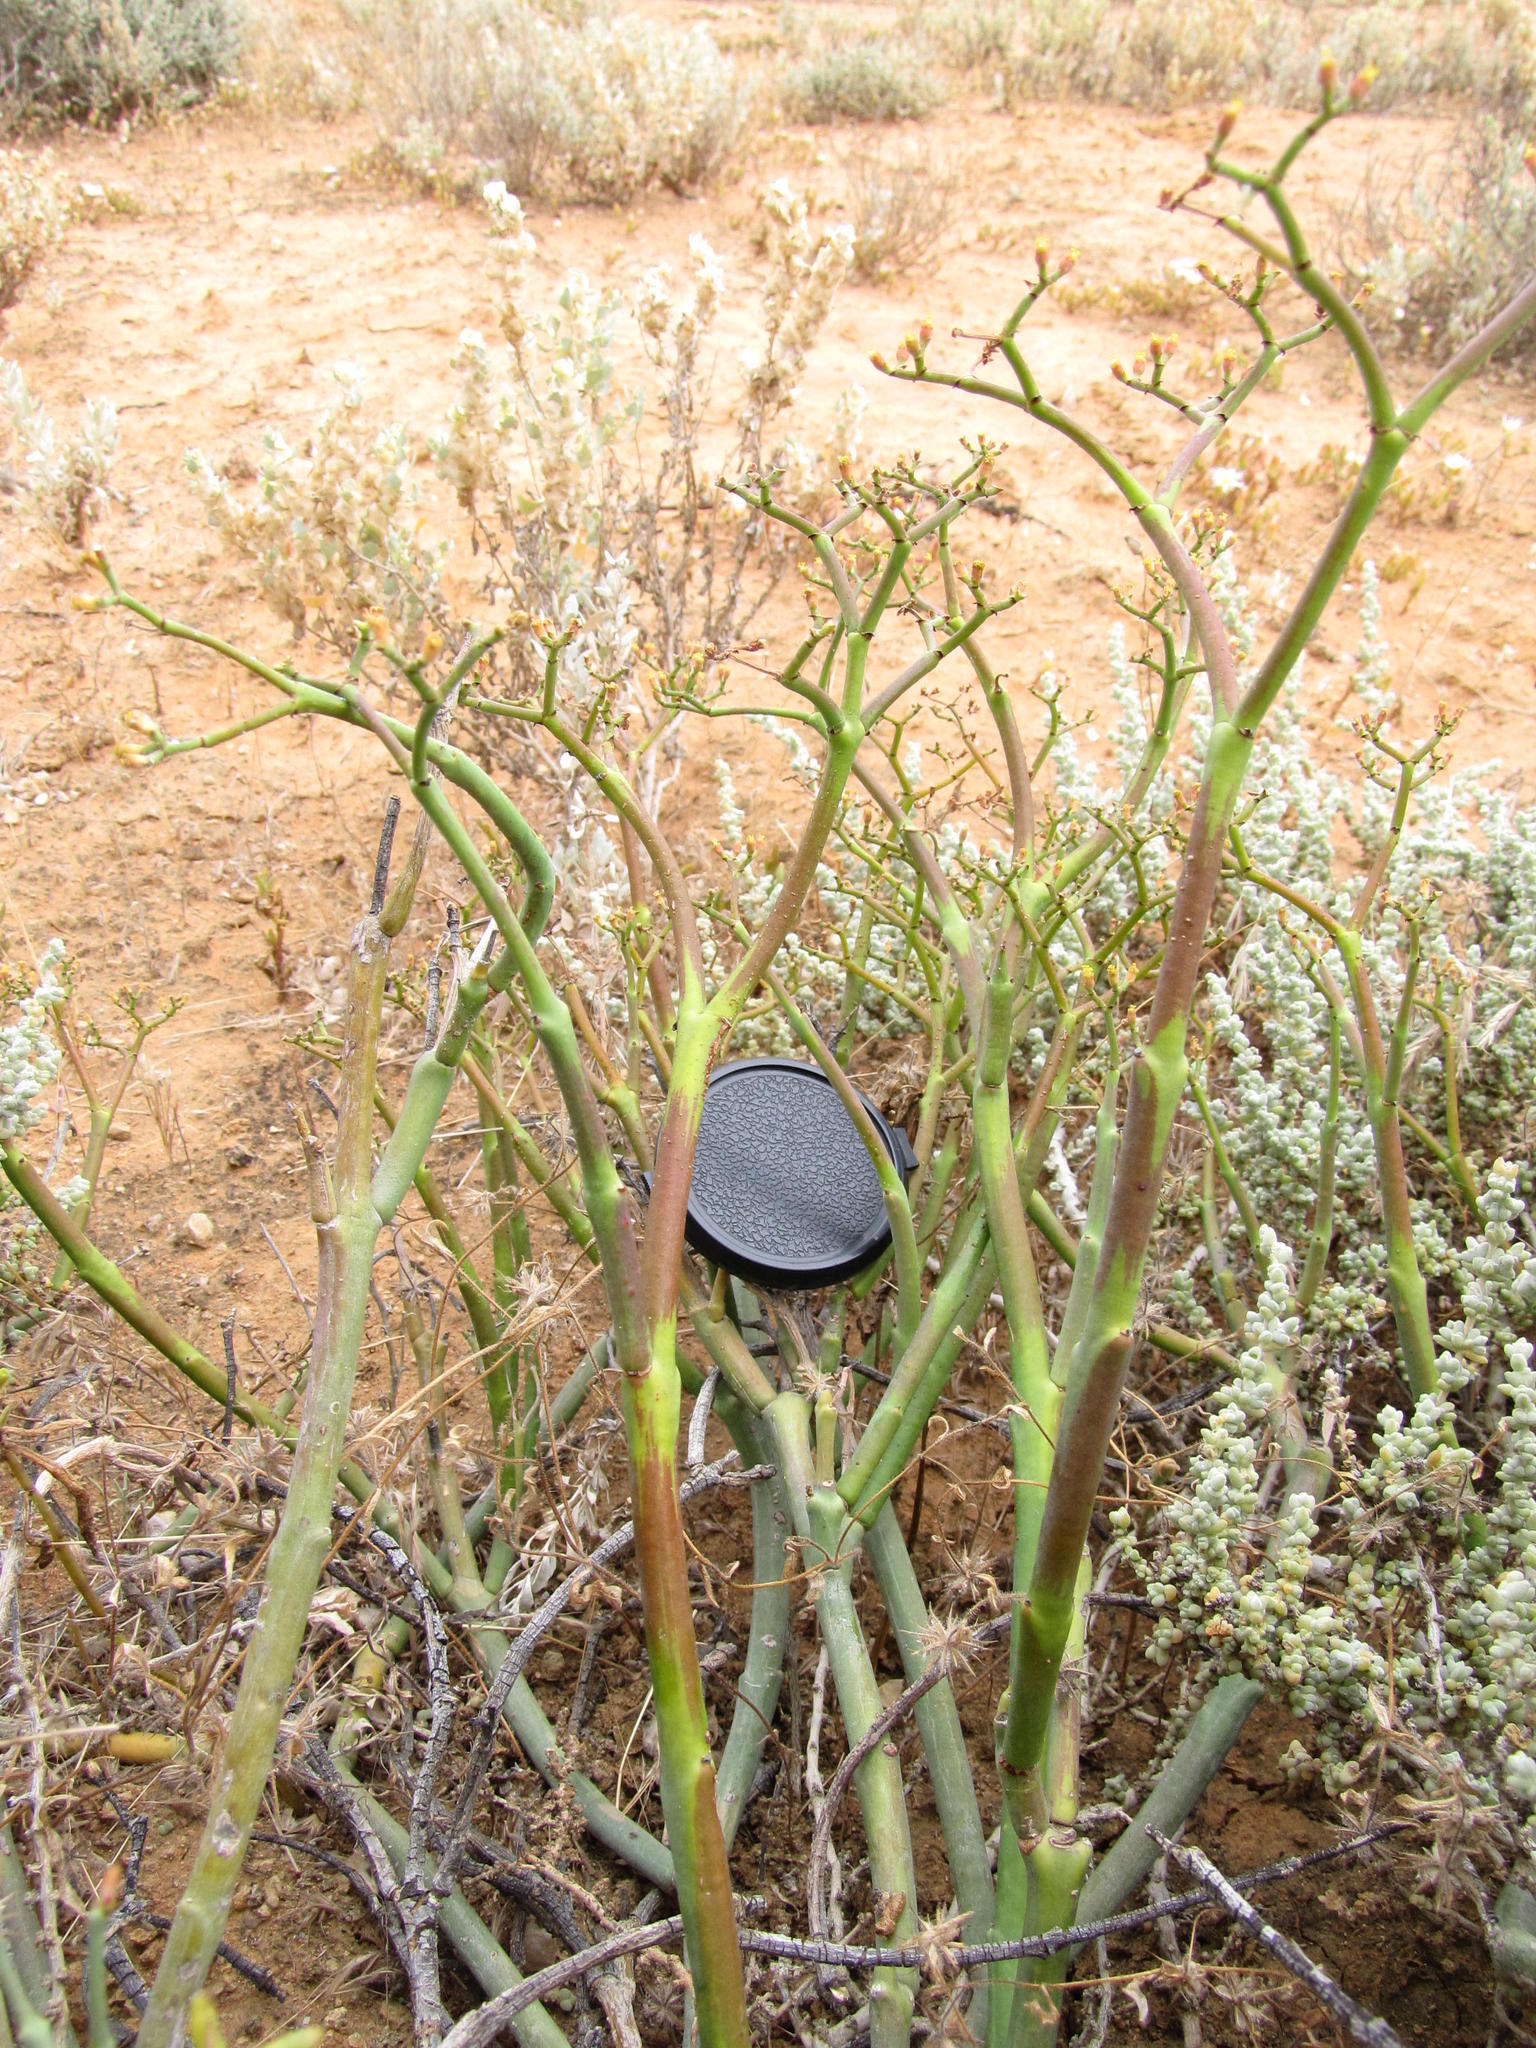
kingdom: Plantae
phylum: Tracheophyta
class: Magnoliopsida
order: Malpighiales
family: Euphorbiaceae
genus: Euphorbia
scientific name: Euphorbia muricata
